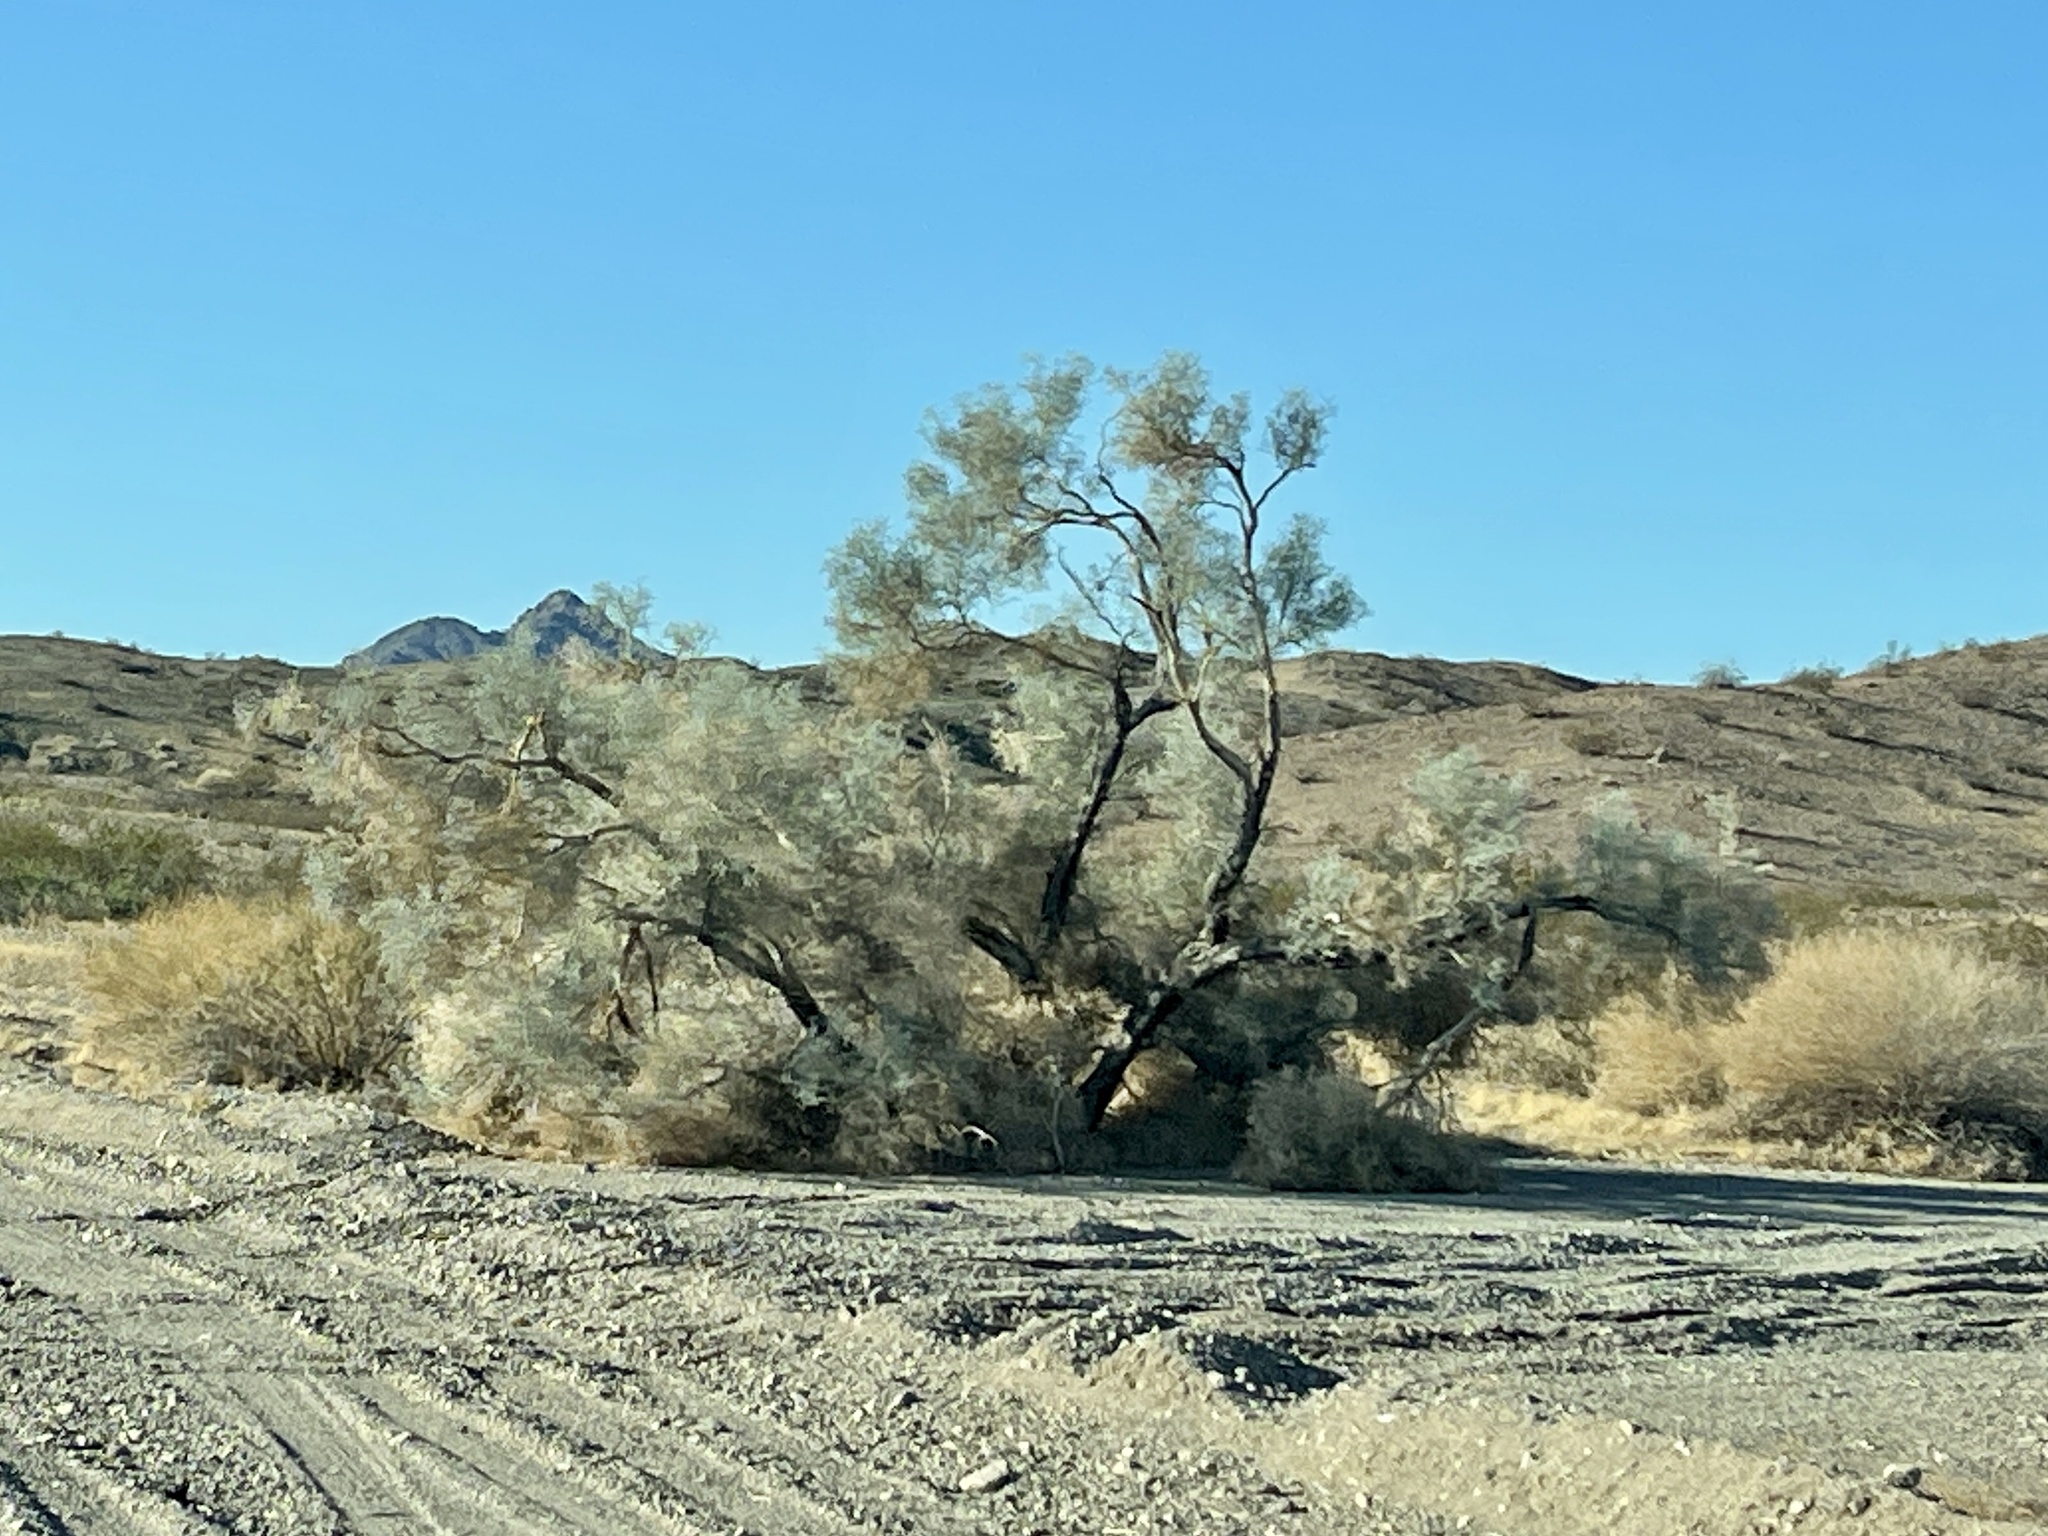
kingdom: Plantae
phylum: Tracheophyta
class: Magnoliopsida
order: Fabales
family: Fabaceae
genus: Psorothamnus
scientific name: Psorothamnus spinosus
